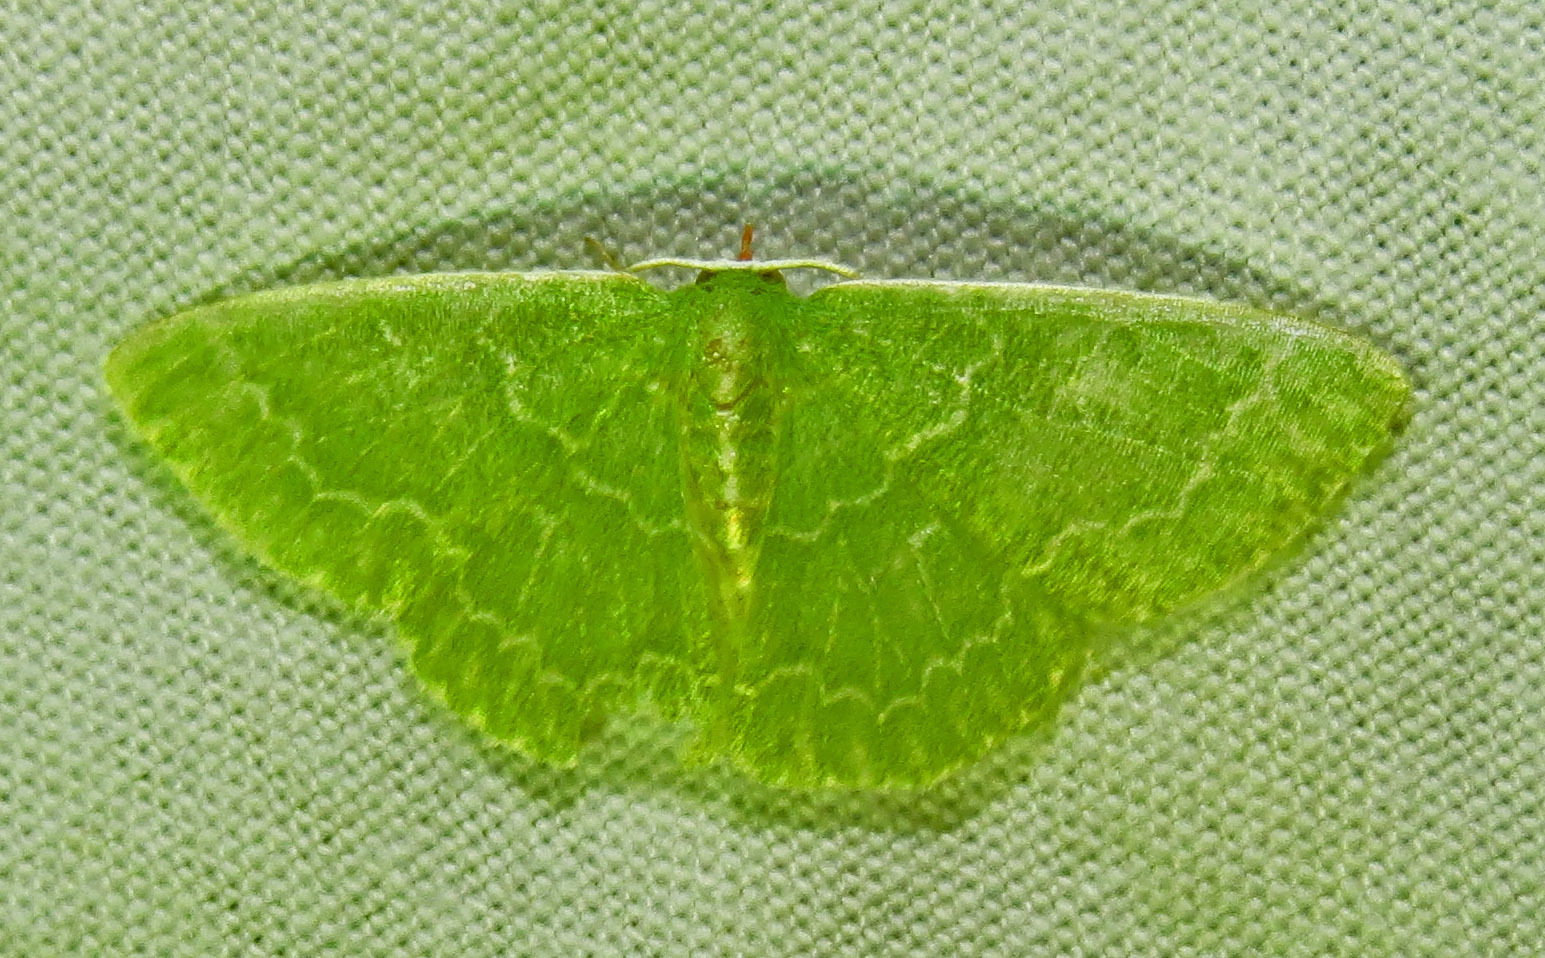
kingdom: Animalia
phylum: Arthropoda
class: Insecta
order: Lepidoptera
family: Geometridae
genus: Synchlora
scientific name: Synchlora frondaria
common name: Southern emerald
